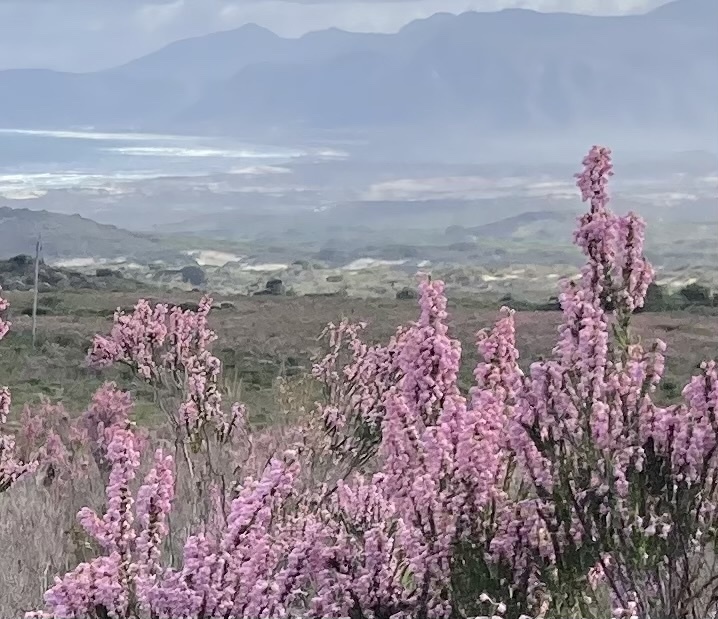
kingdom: Plantae
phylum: Tracheophyta
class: Magnoliopsida
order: Ericales
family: Ericaceae
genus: Erica
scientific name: Erica irregularis
